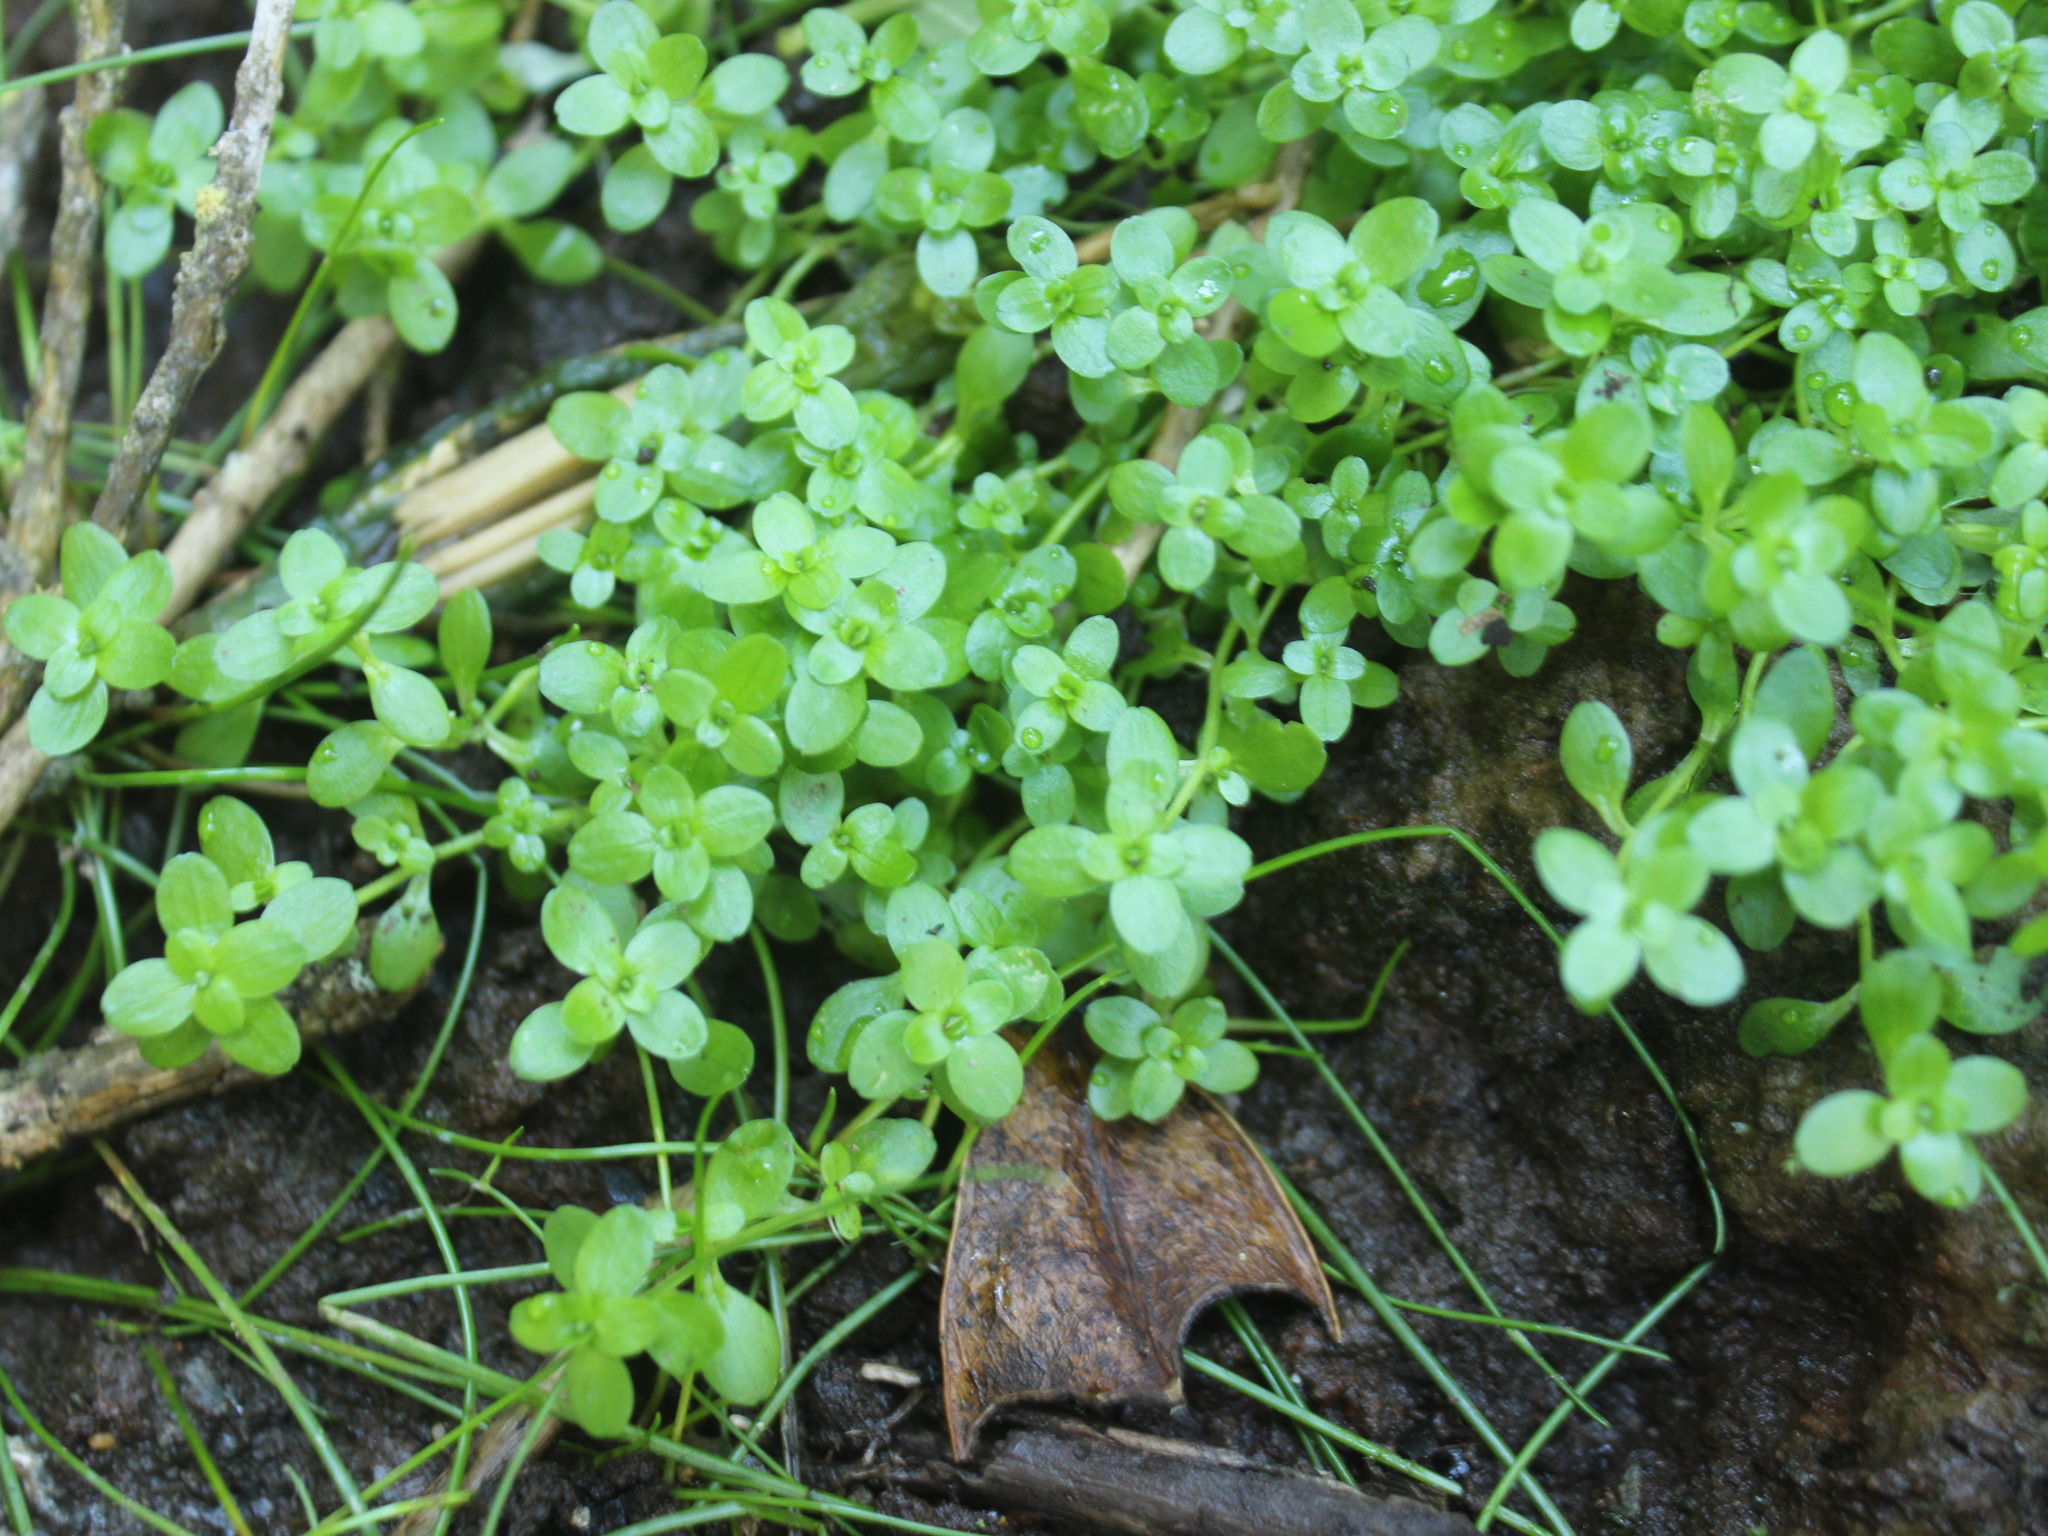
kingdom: Plantae
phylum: Tracheophyta
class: Magnoliopsida
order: Lamiales
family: Plantaginaceae
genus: Callitriche
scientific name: Callitriche stagnalis
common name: Common water-starwort
